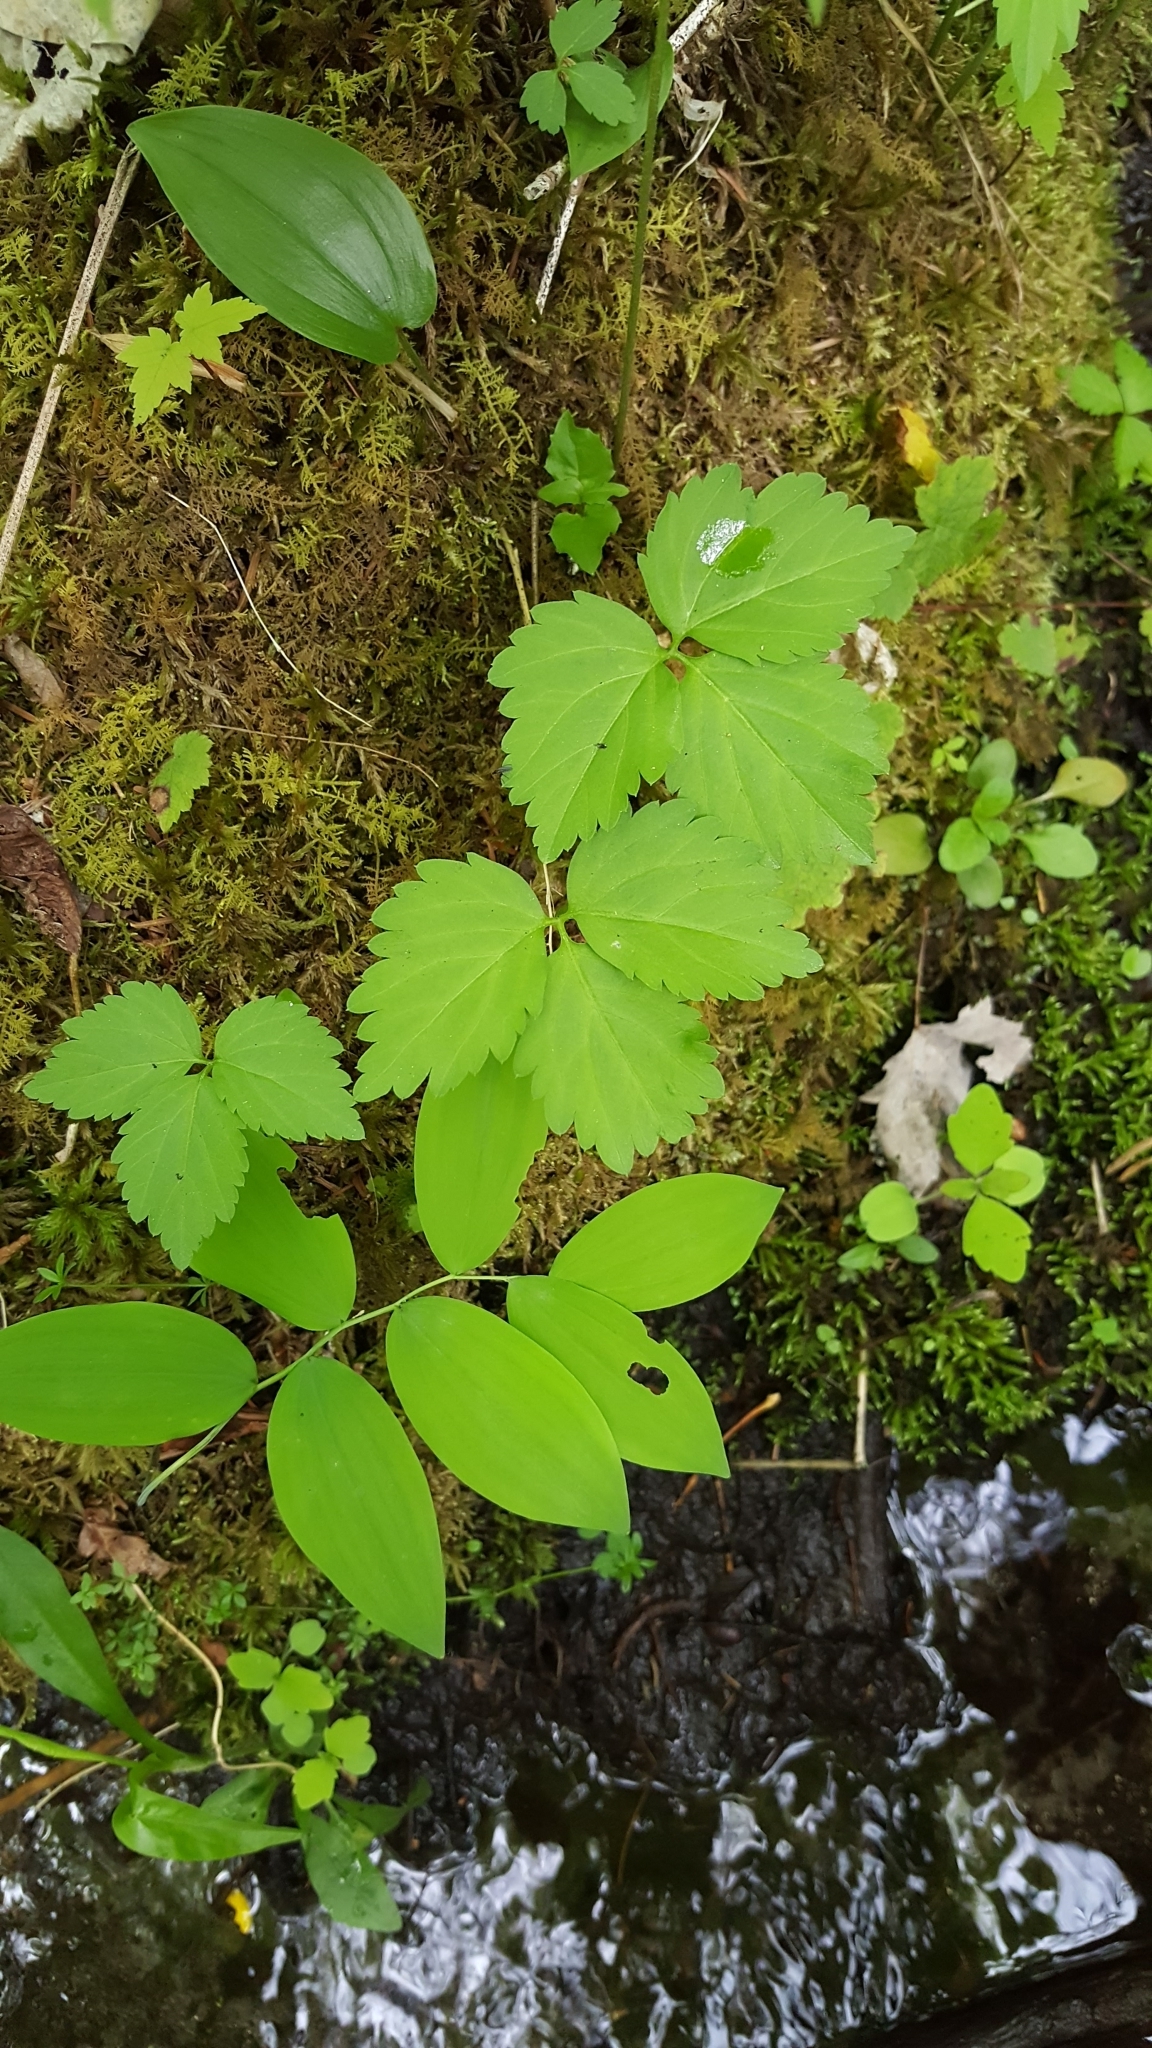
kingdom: Plantae
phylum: Tracheophyta
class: Magnoliopsida
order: Brassicales
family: Brassicaceae
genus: Cardamine
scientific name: Cardamine diphylla
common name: Broad-leaved toothwort
